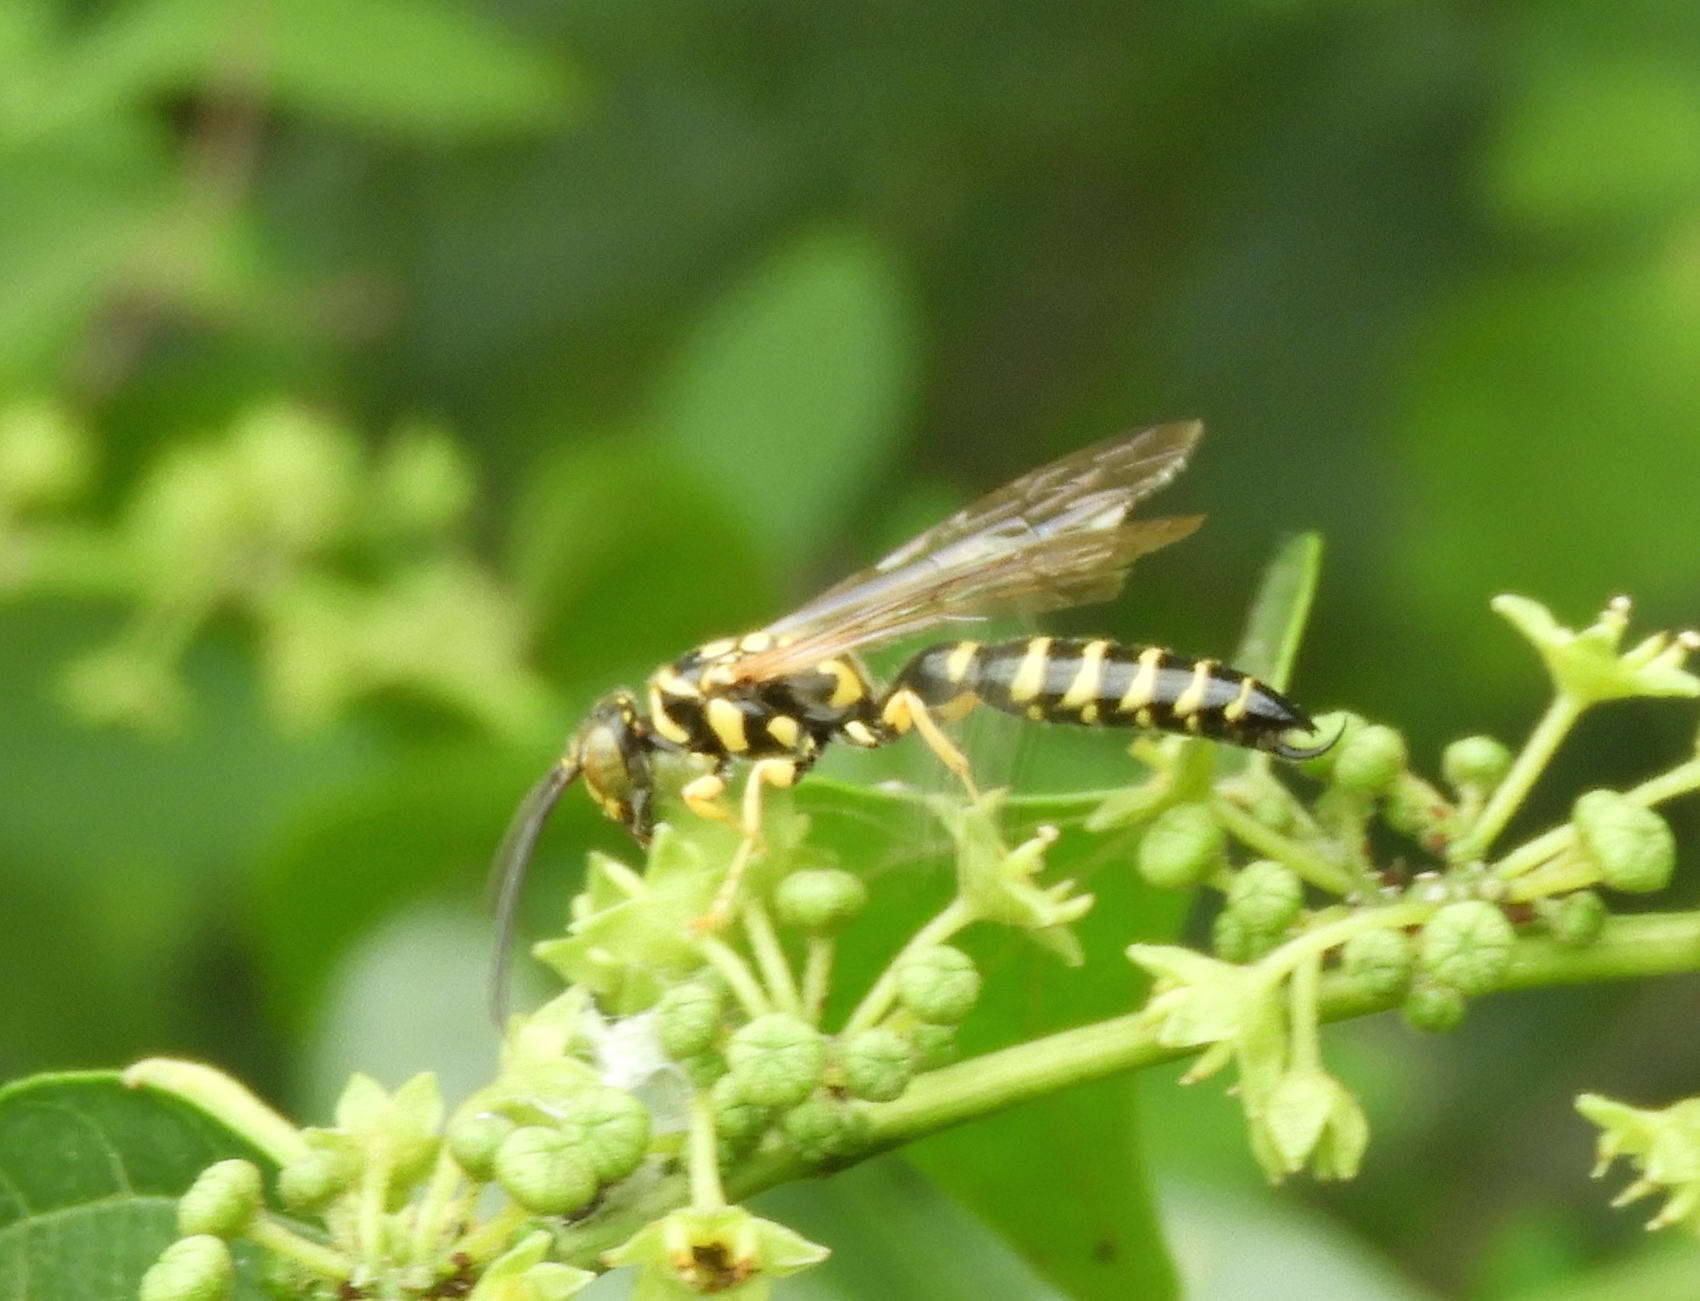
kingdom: Animalia
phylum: Arthropoda
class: Insecta
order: Hymenoptera
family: Tiphiidae
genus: Myzinum
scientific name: Myzinum
